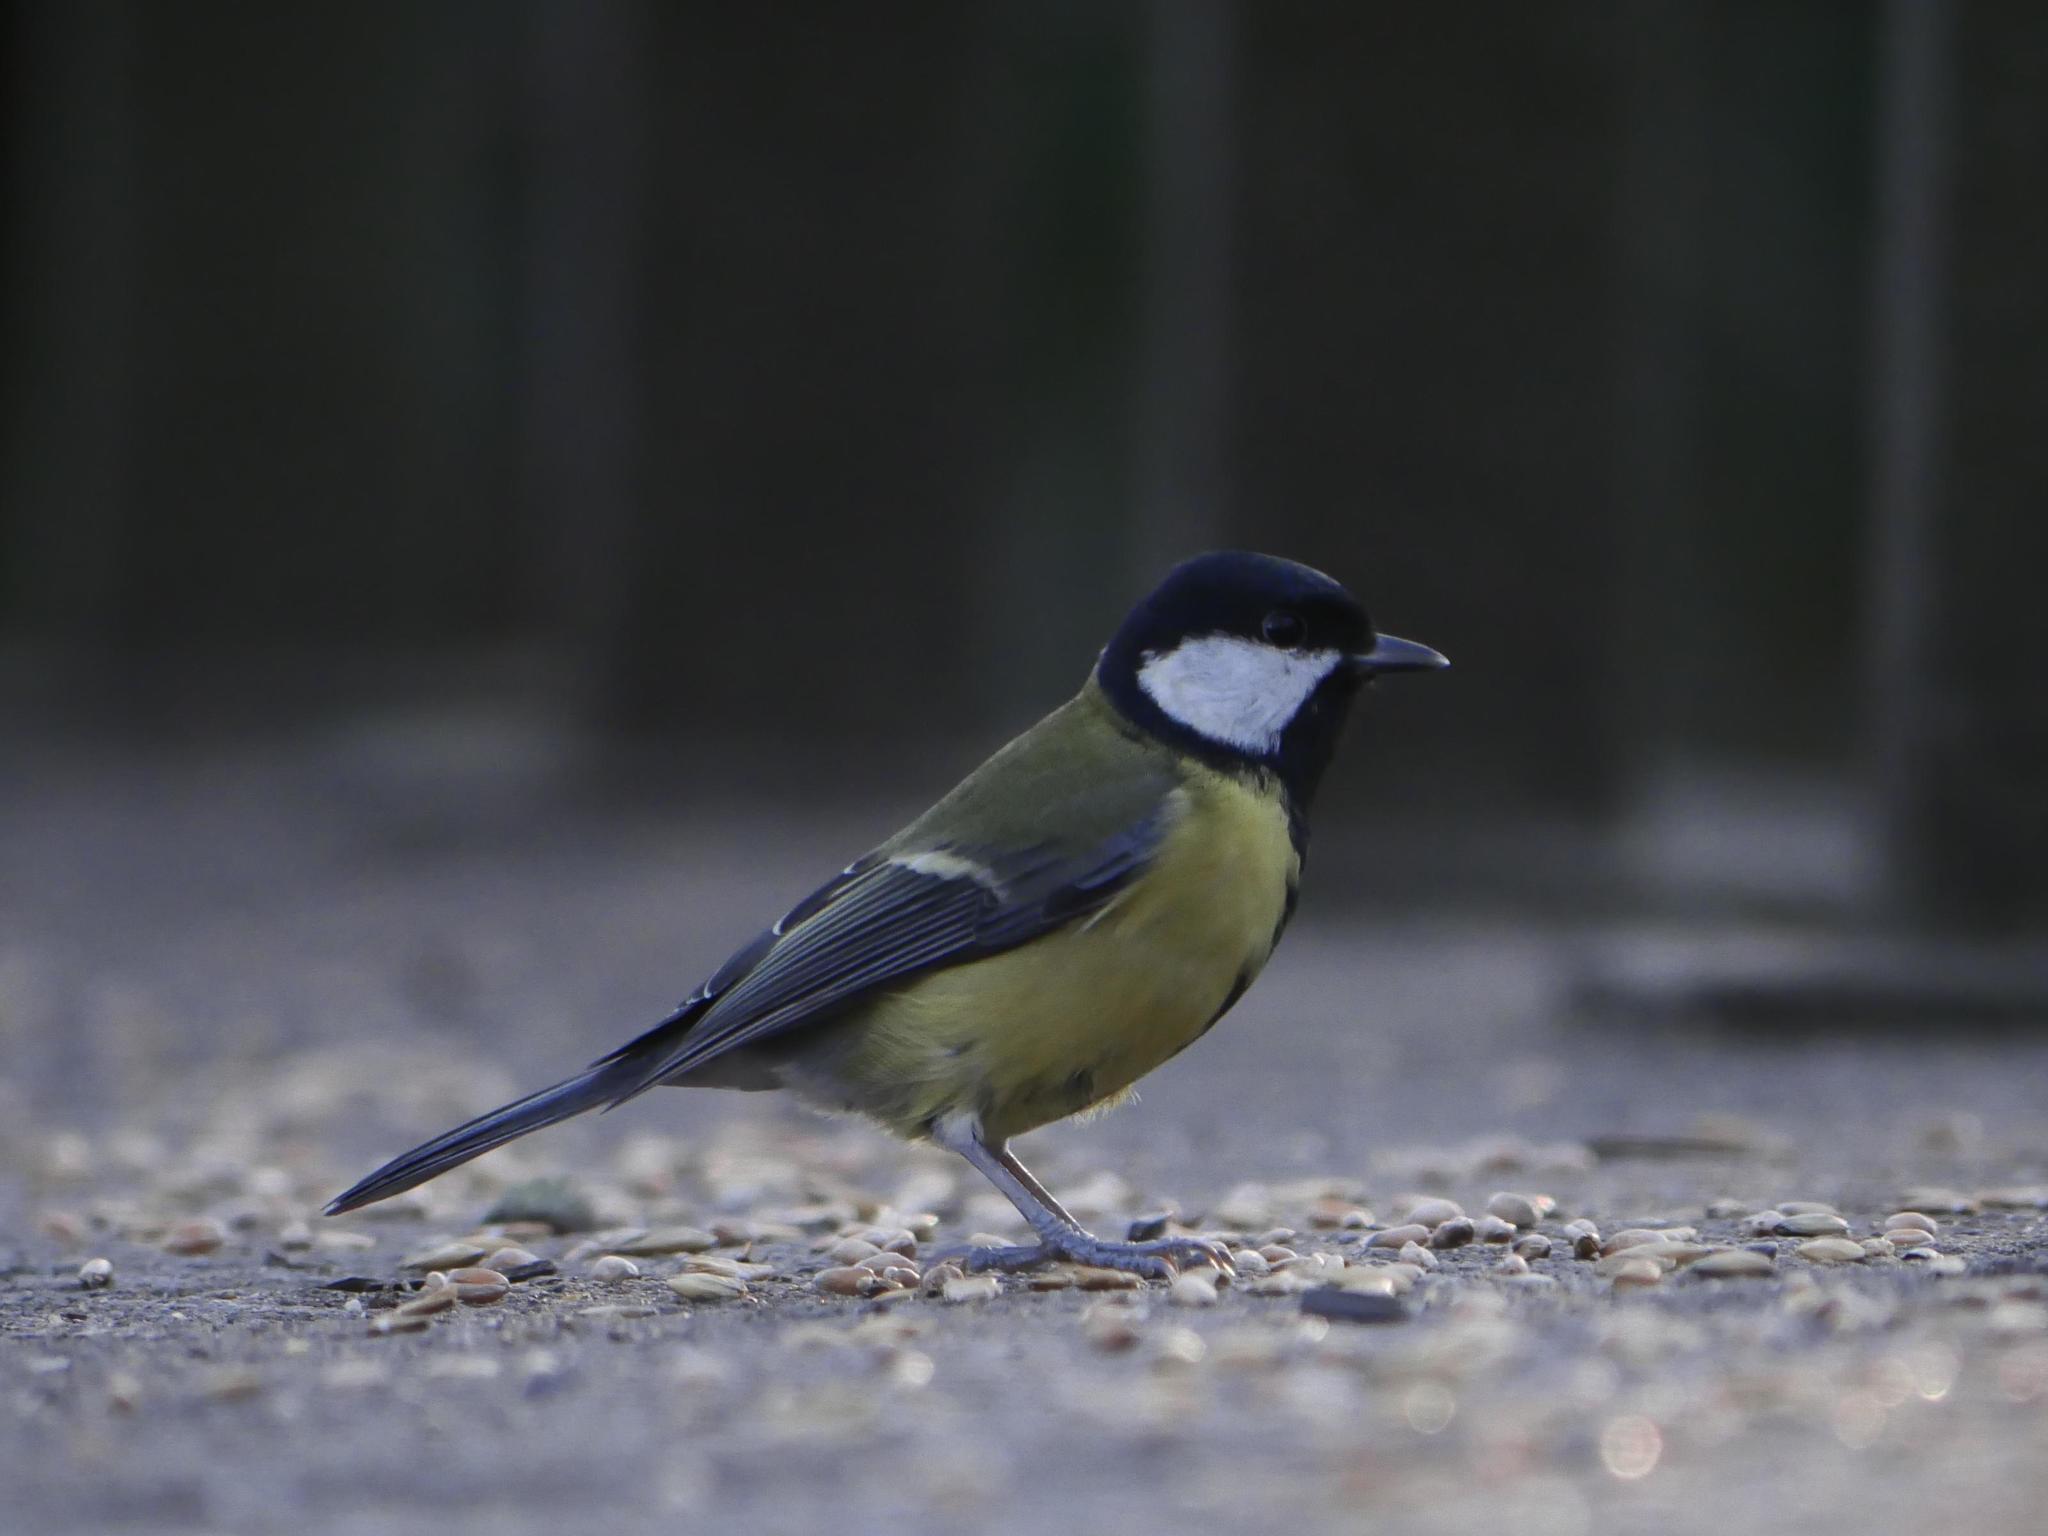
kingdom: Animalia
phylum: Chordata
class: Aves
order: Passeriformes
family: Paridae
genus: Parus
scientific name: Parus major
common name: Great tit
